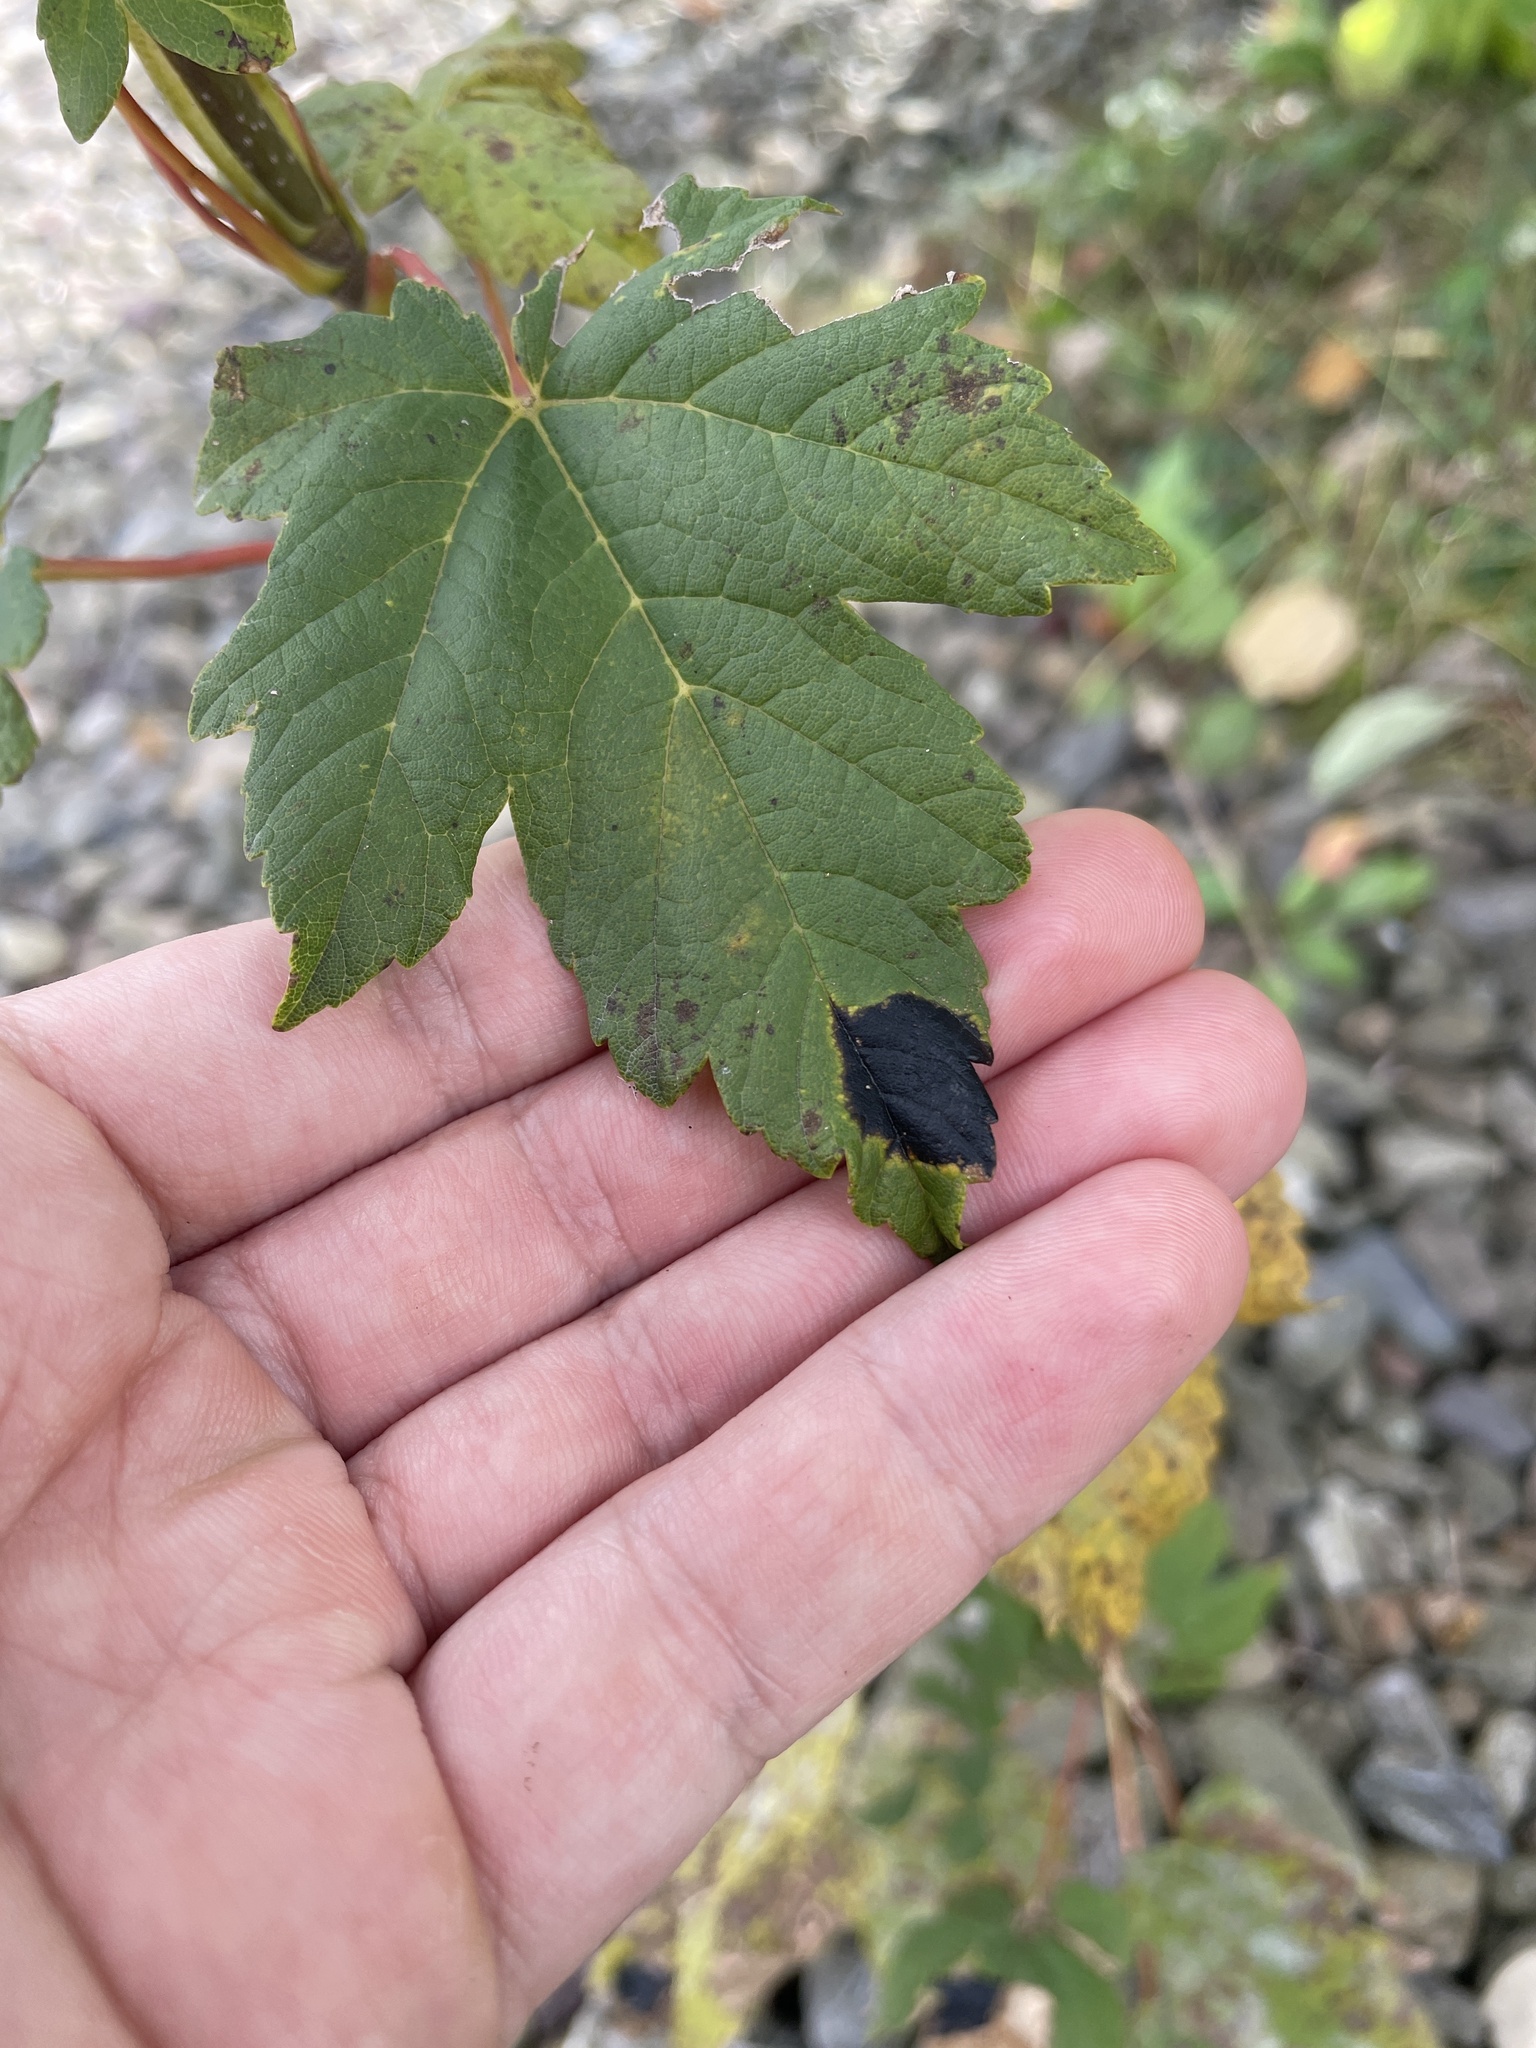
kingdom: Fungi
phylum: Ascomycota
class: Leotiomycetes
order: Rhytismatales
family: Rhytismataceae
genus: Rhytisma
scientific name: Rhytisma acerinum
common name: European tar spot
